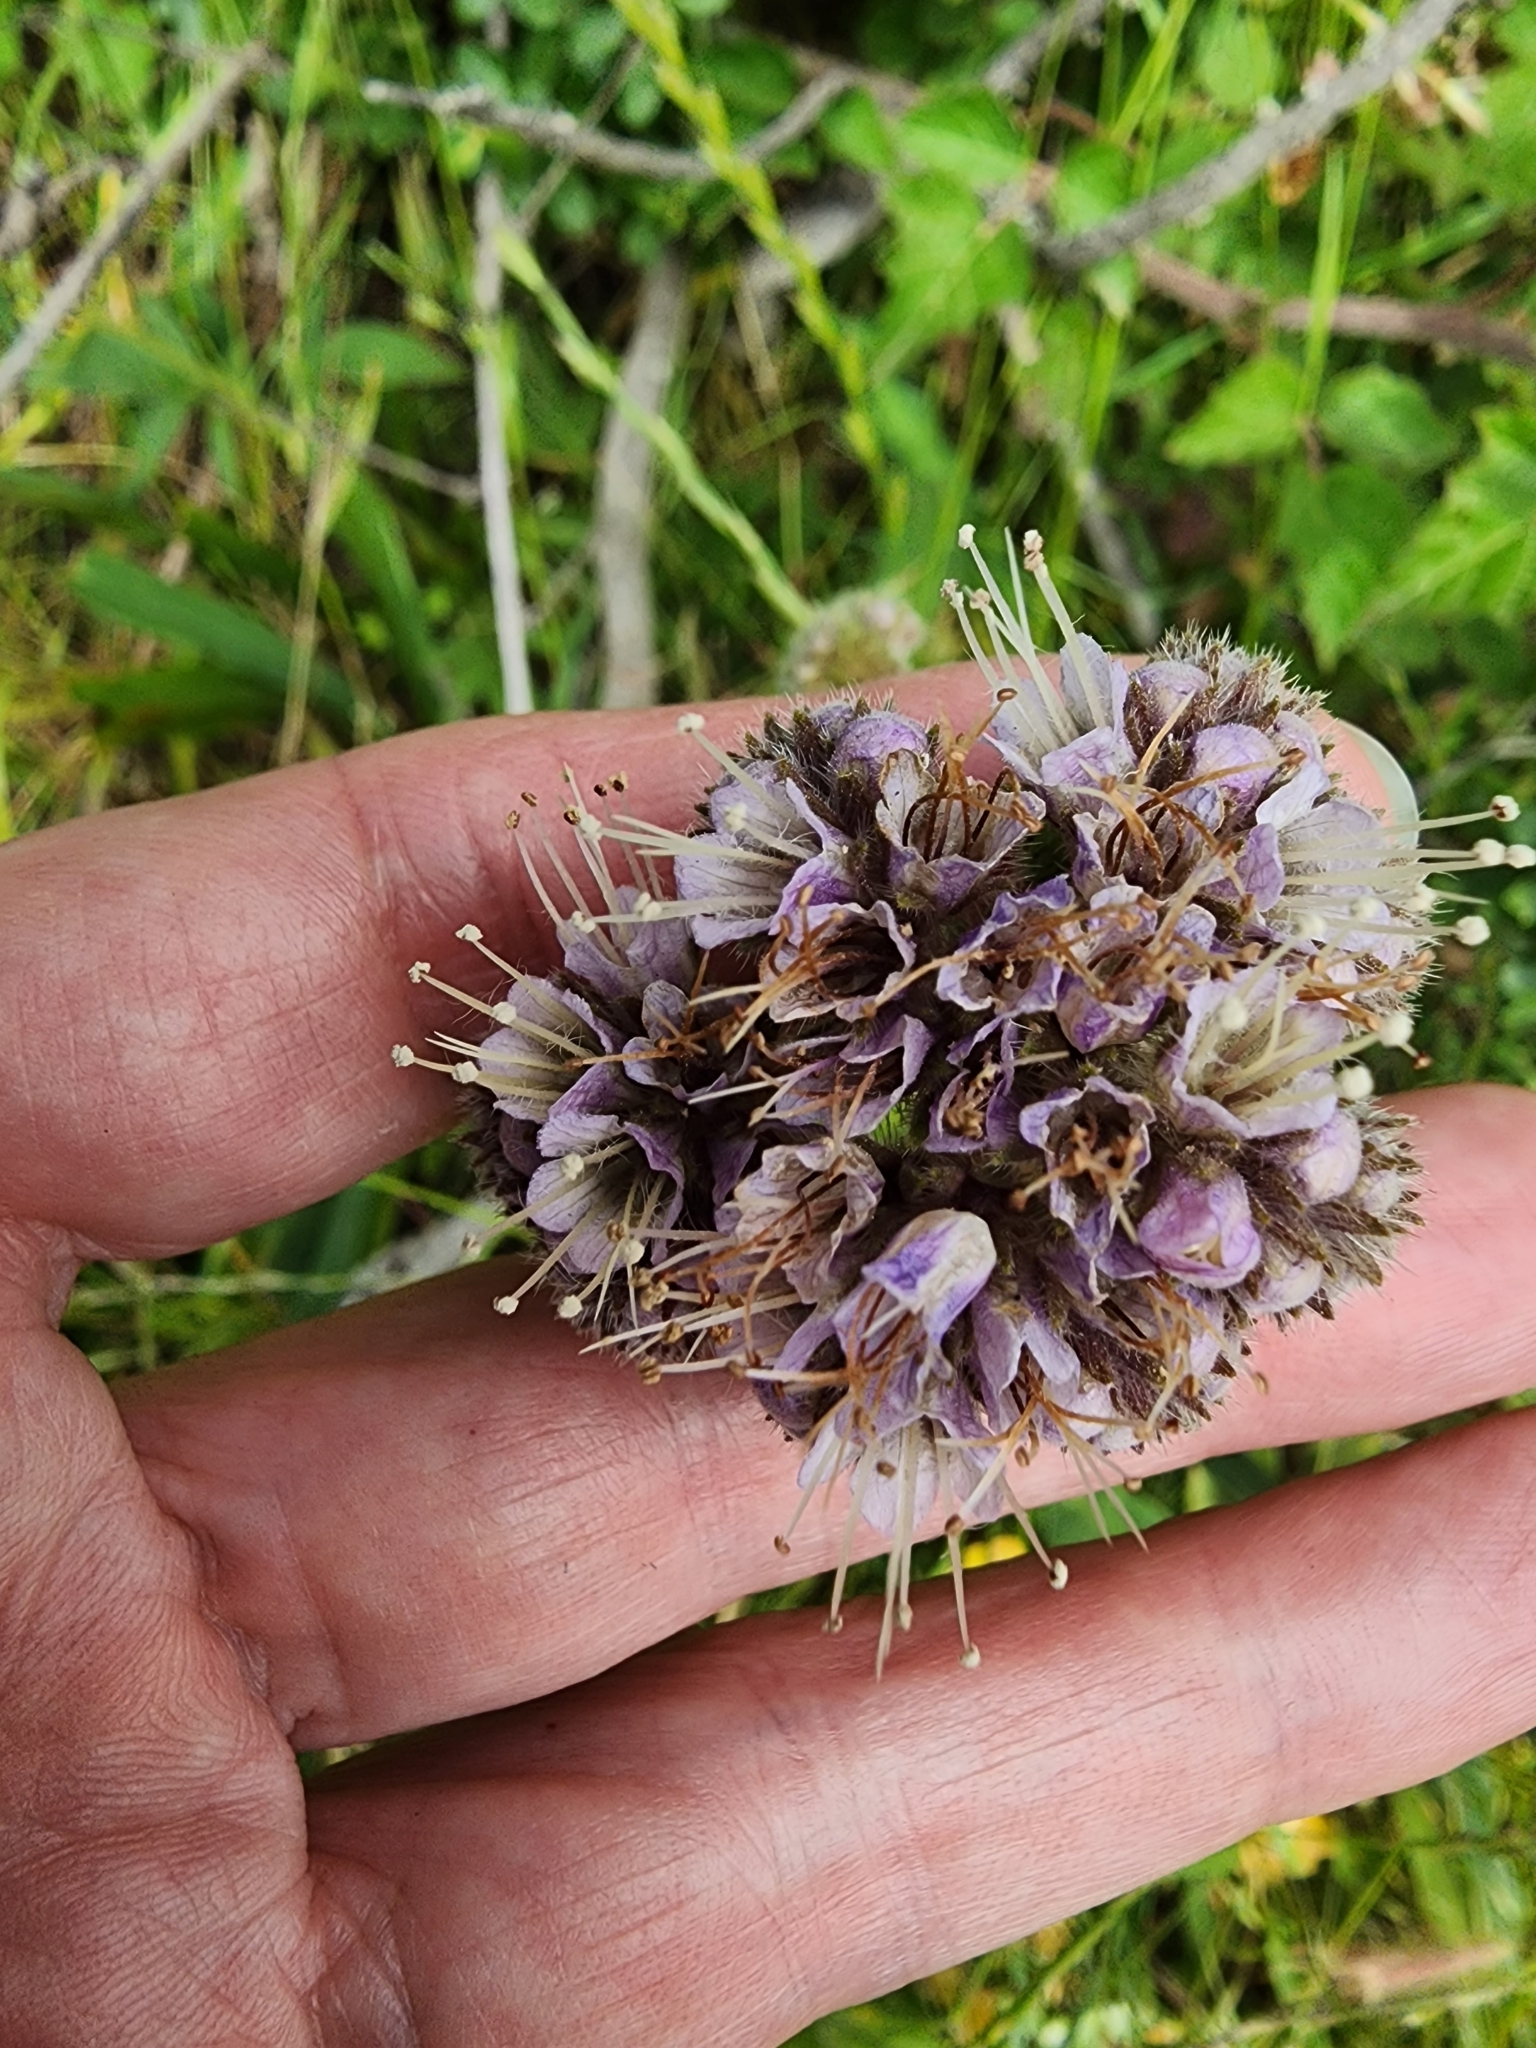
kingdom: Plantae
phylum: Tracheophyta
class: Magnoliopsida
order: Boraginales
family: Hydrophyllaceae
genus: Phacelia
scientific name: Phacelia californica
